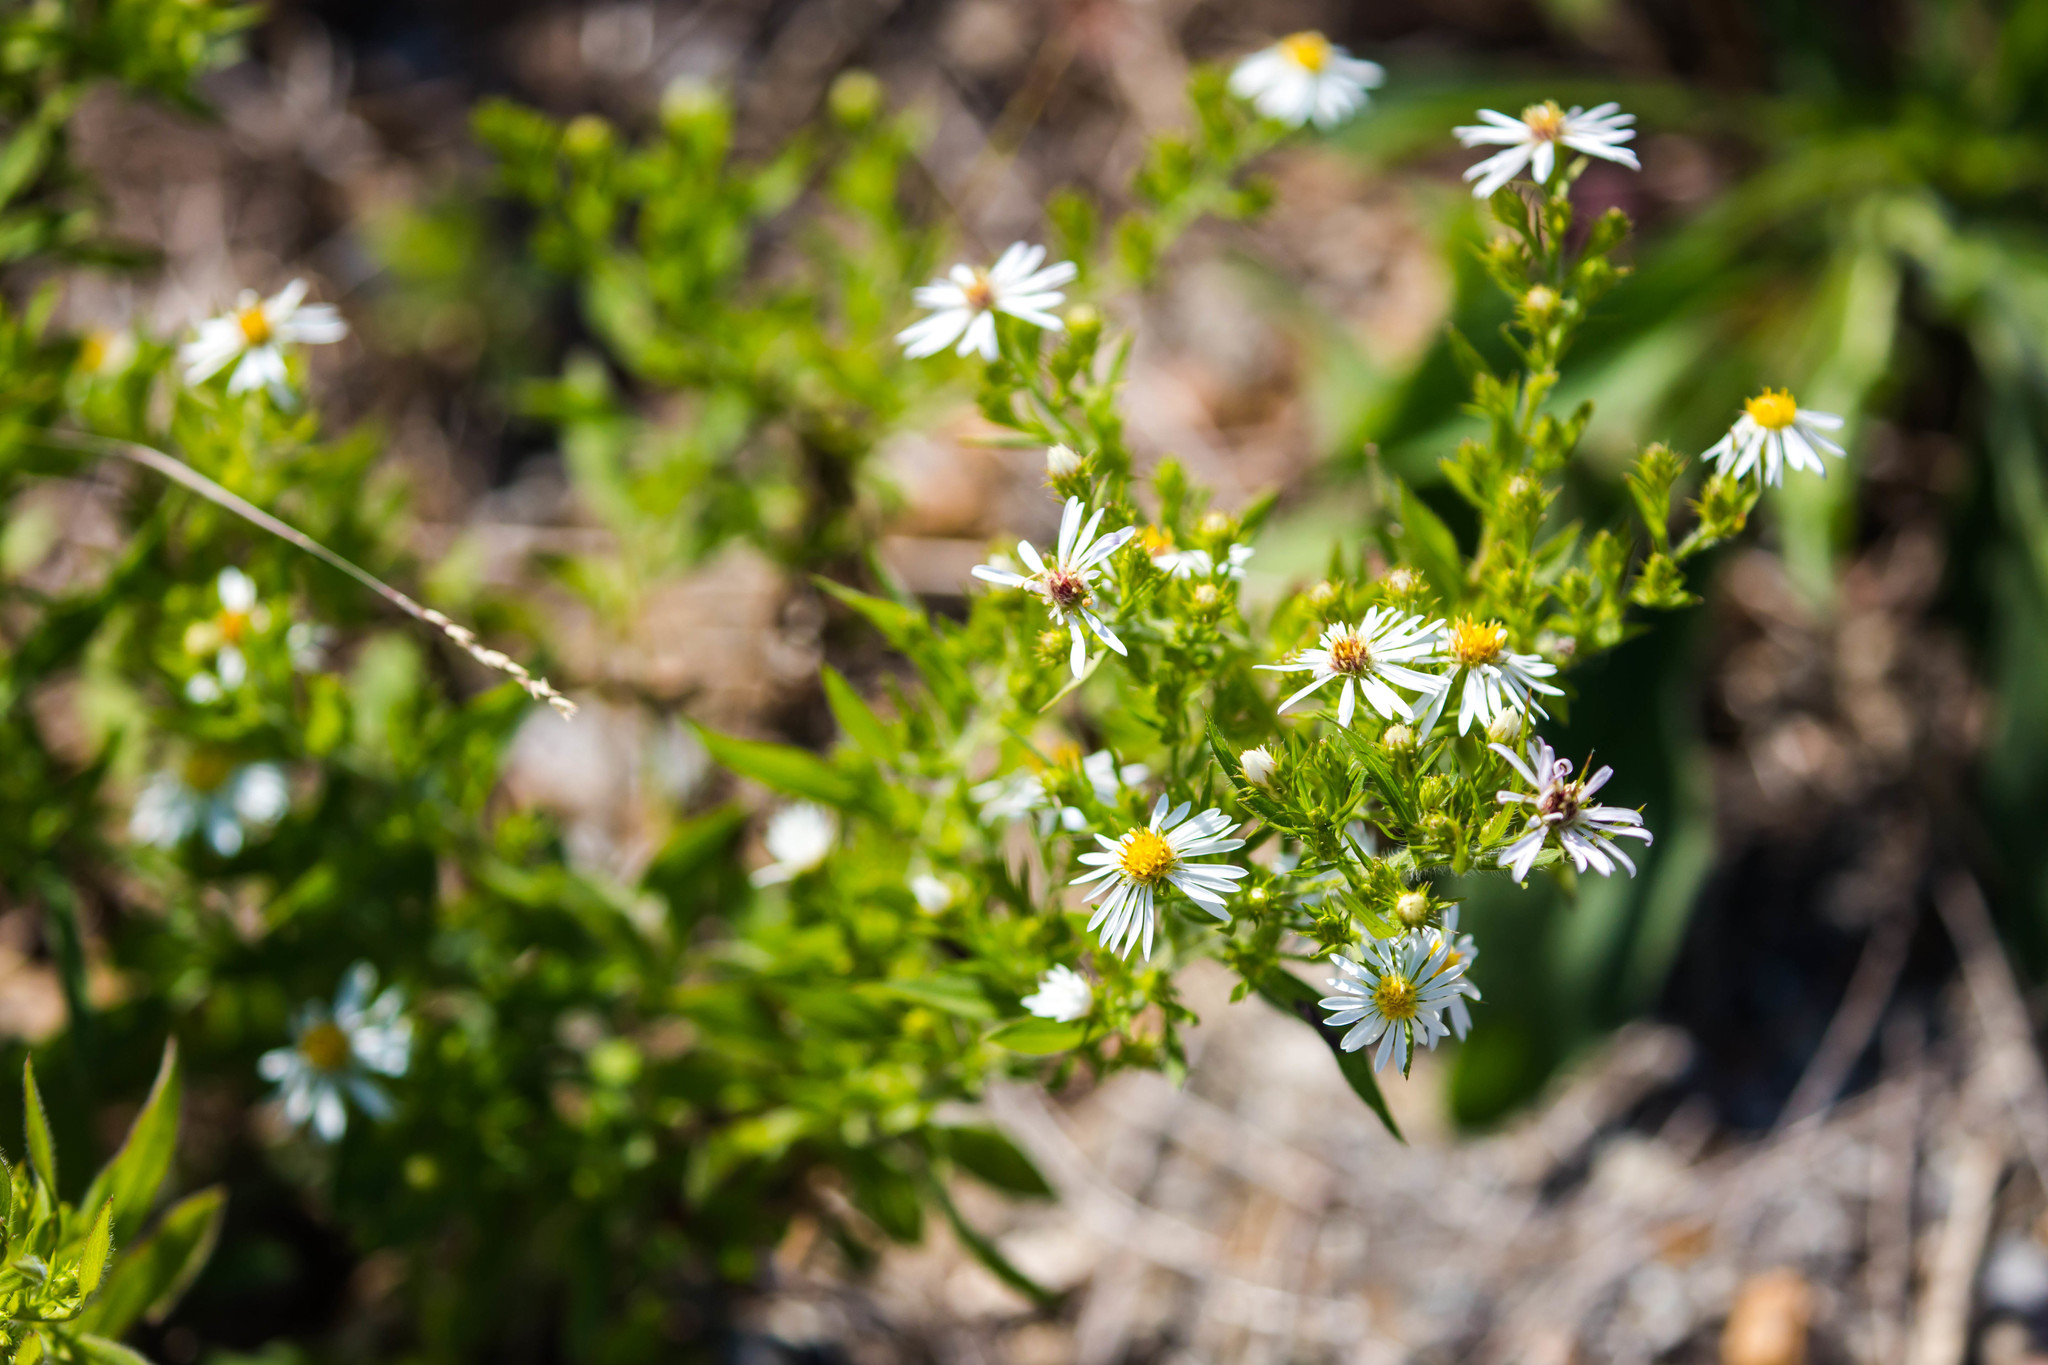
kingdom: Plantae
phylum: Tracheophyta
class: Magnoliopsida
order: Asterales
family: Asteraceae
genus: Symphyotrichum
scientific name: Symphyotrichum lanceolatum
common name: Panicled aster
